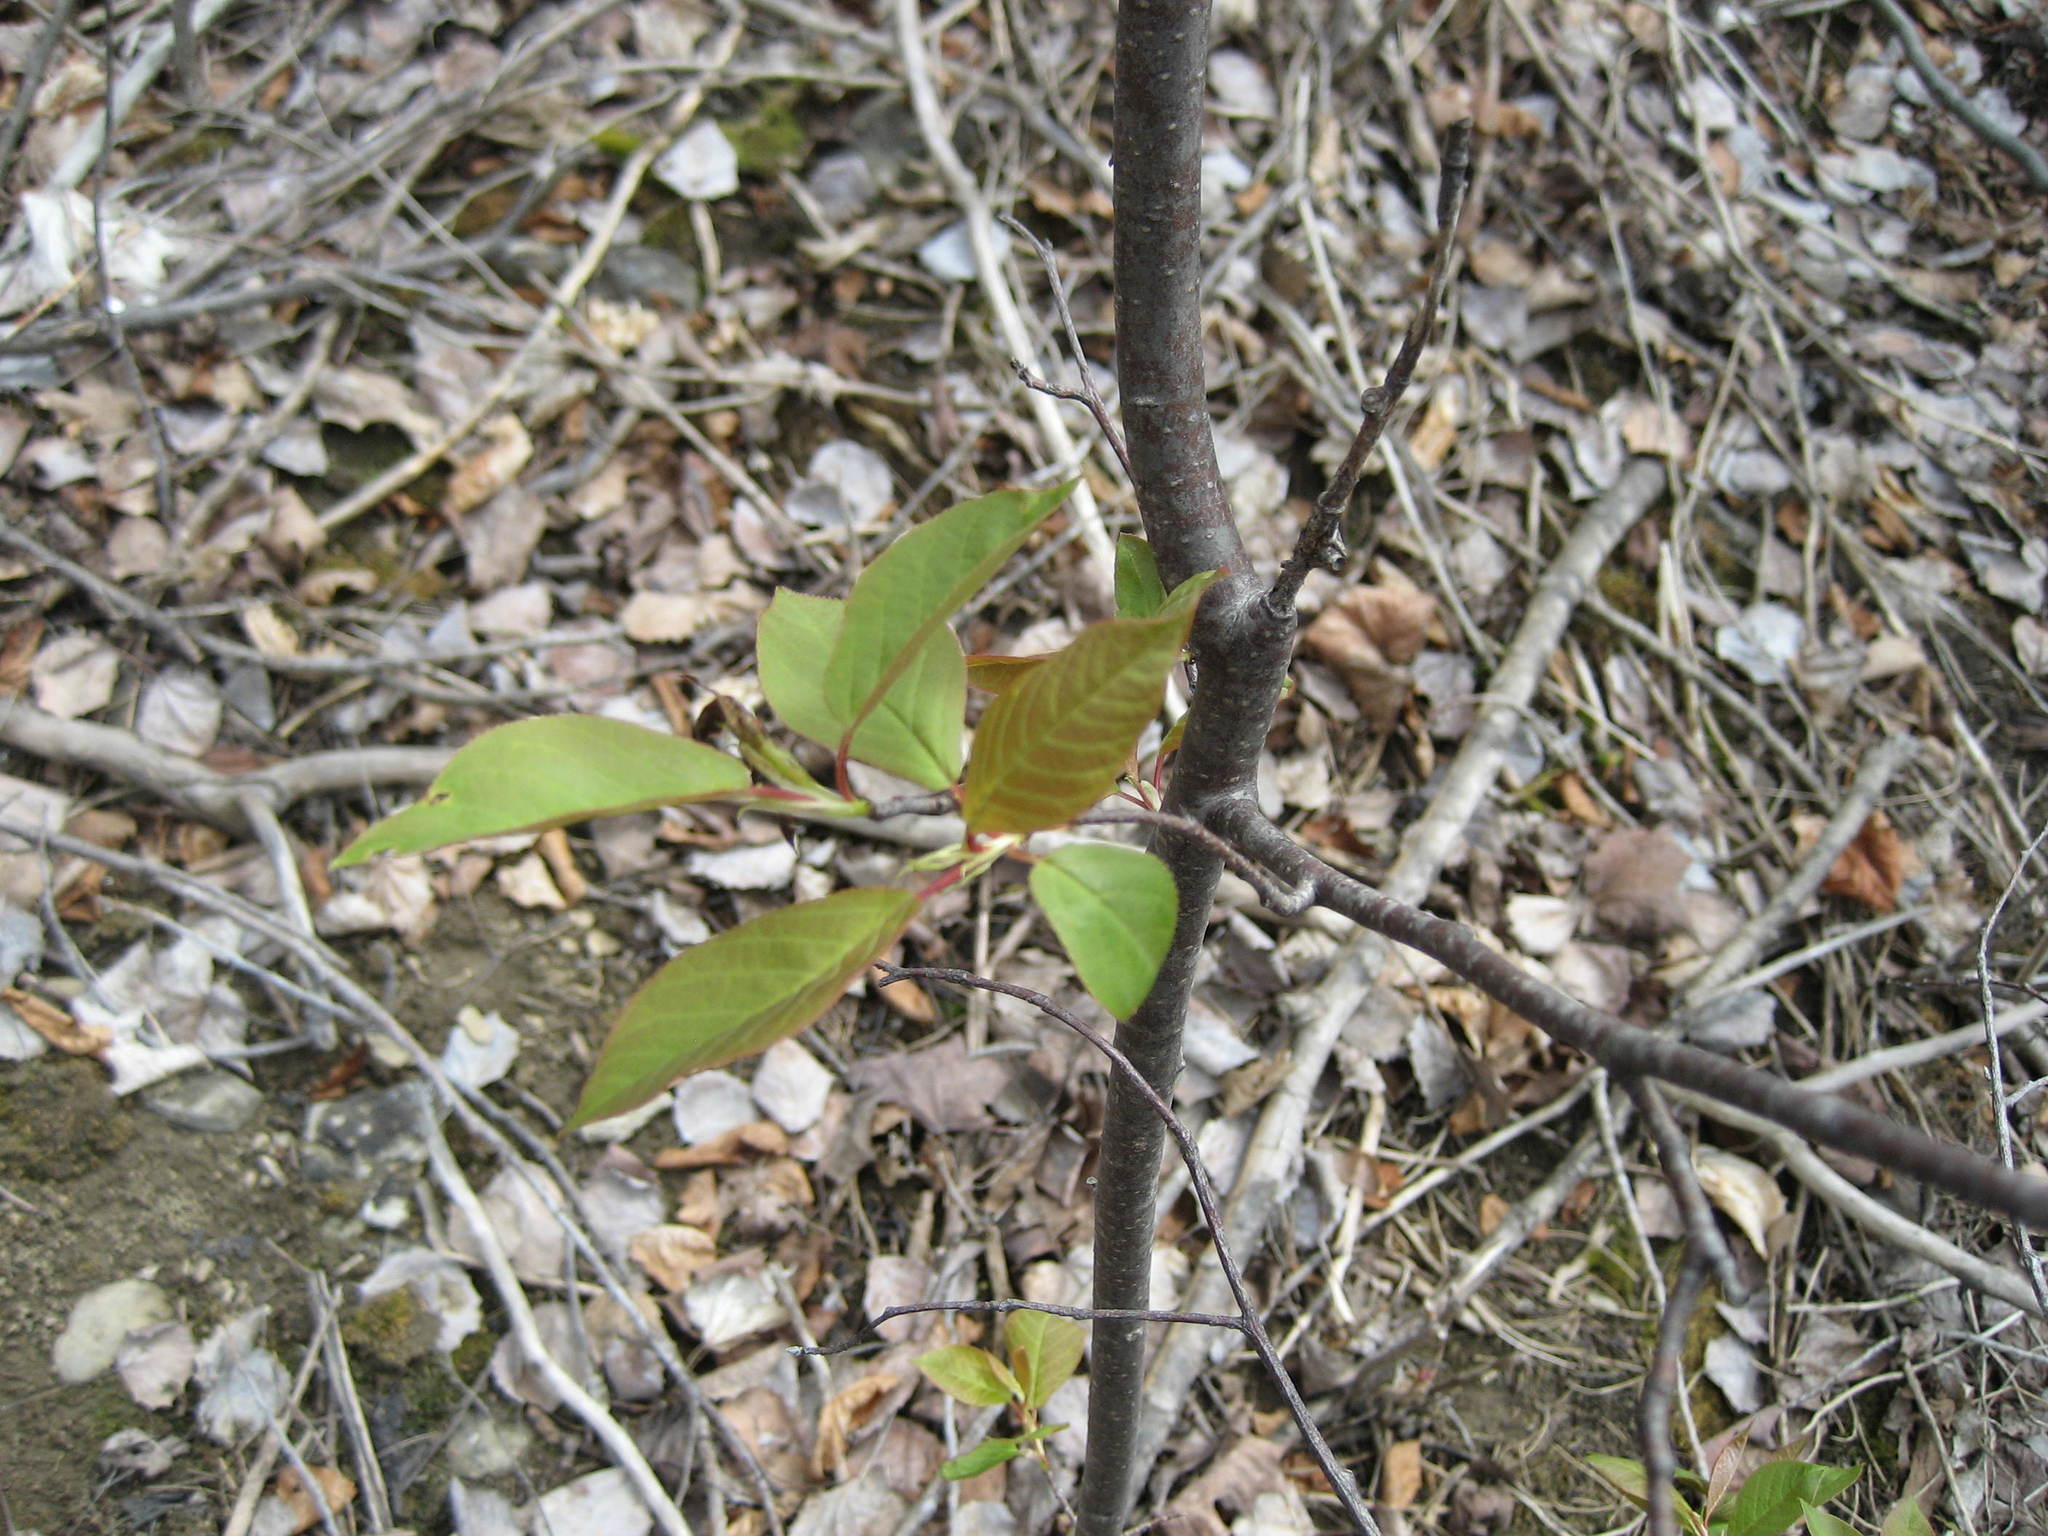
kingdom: Plantae
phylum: Tracheophyta
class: Magnoliopsida
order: Rosales
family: Rosaceae
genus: Prunus
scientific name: Prunus virginiana
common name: Chokecherry
